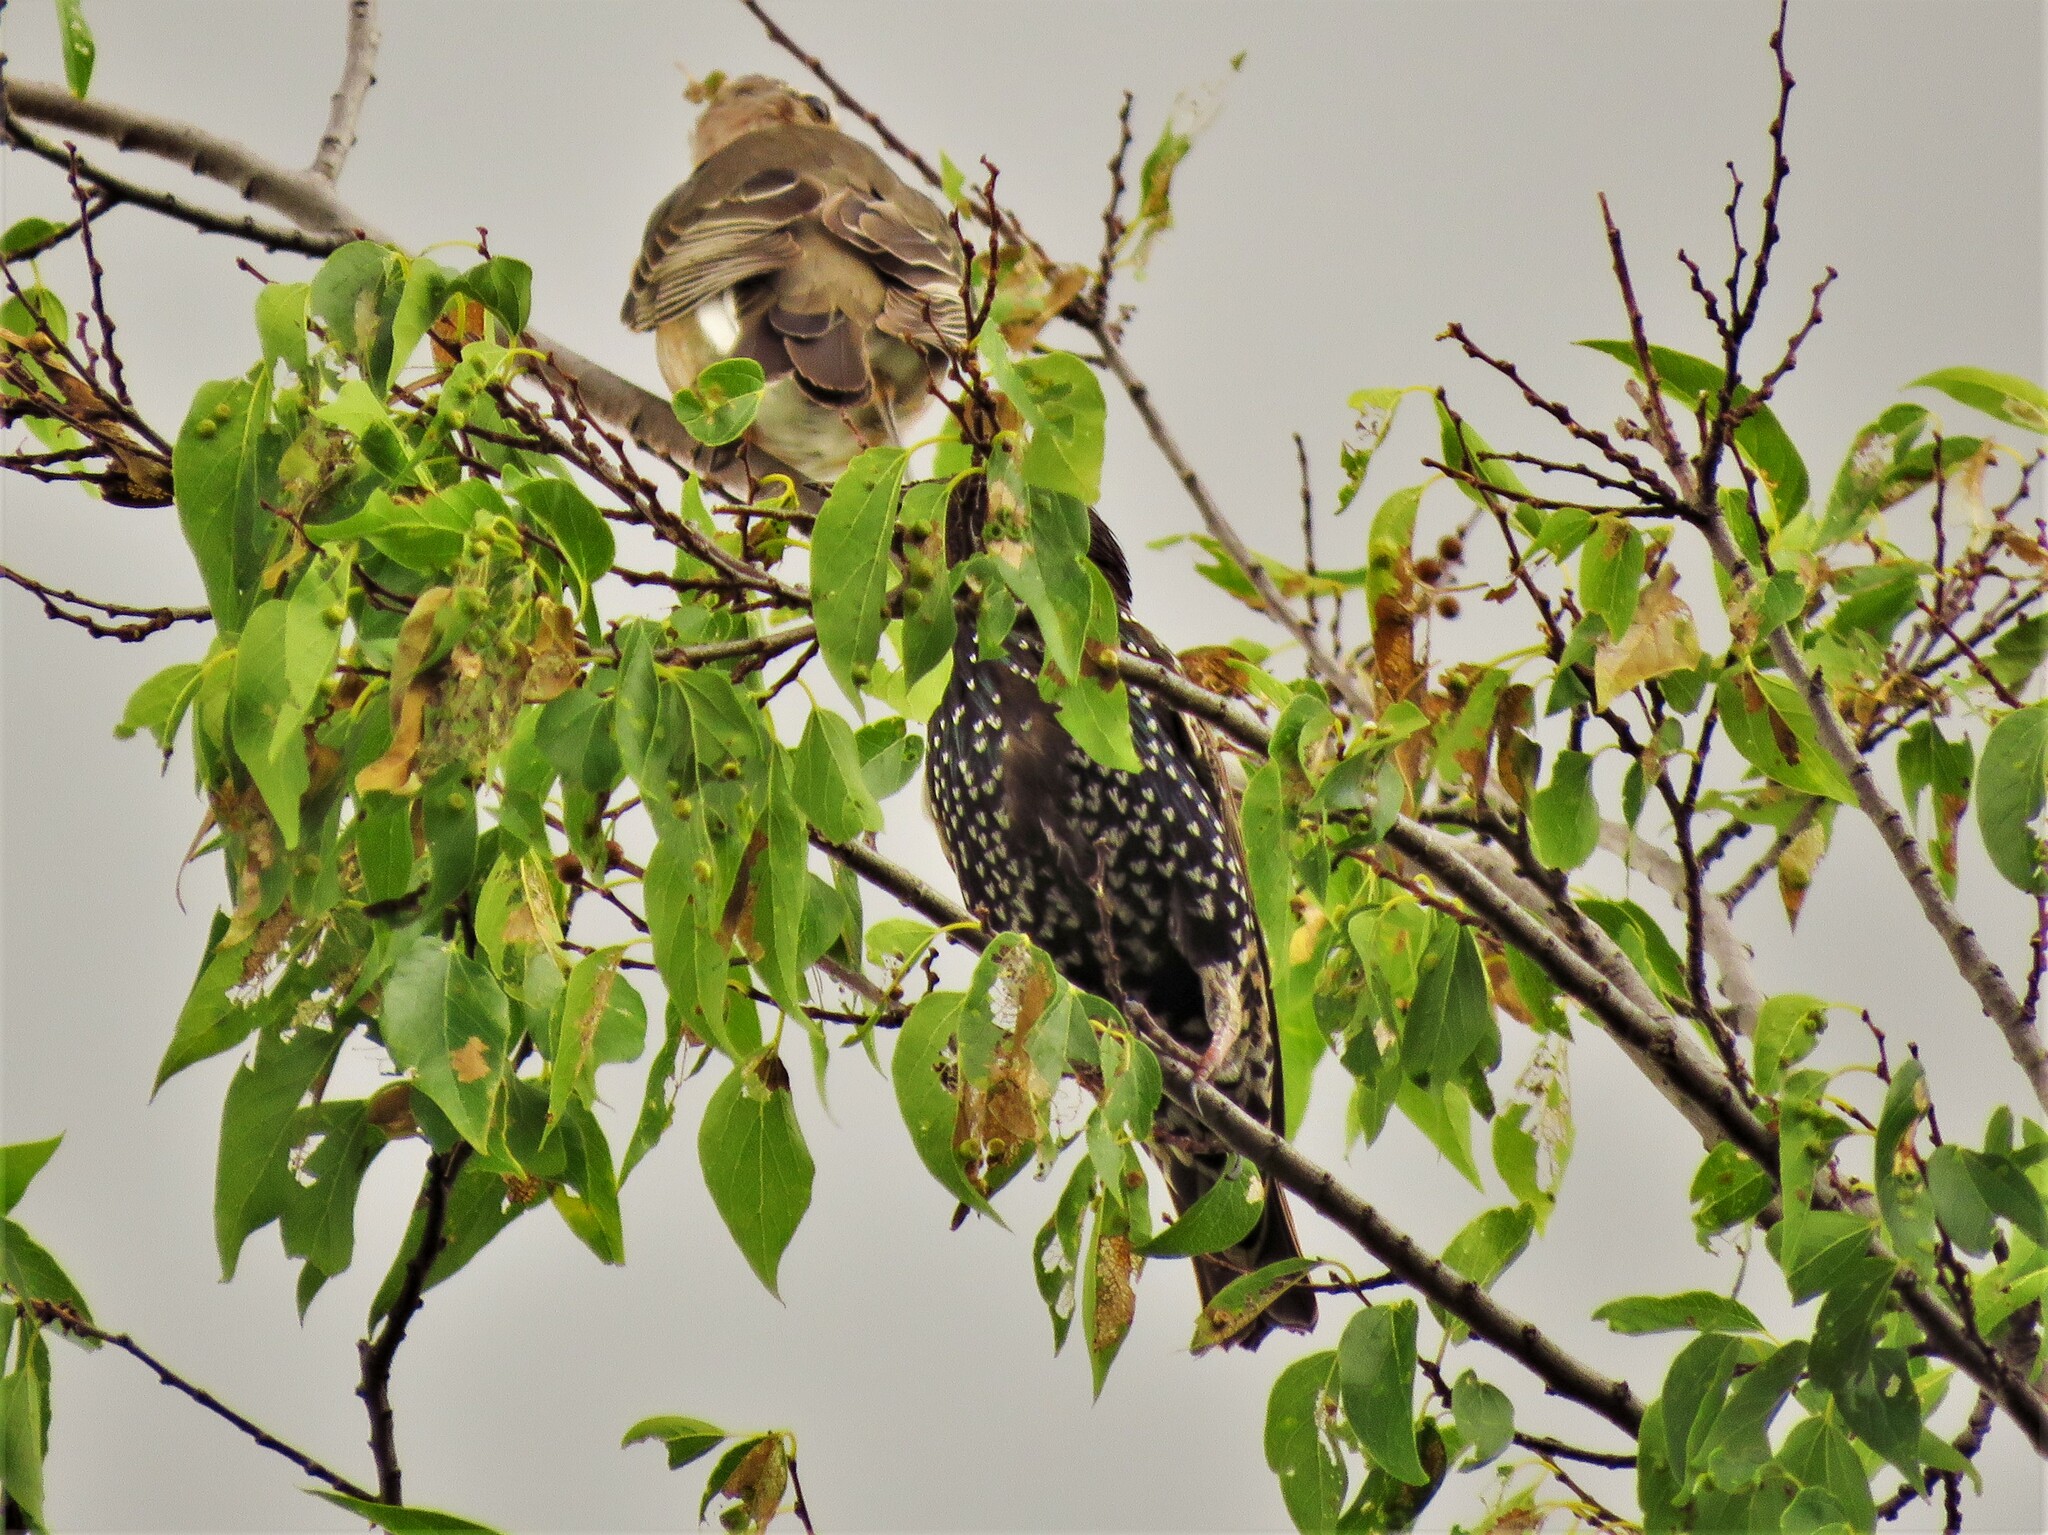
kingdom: Animalia
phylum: Chordata
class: Aves
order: Passeriformes
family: Sturnidae
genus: Sturnus
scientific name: Sturnus vulgaris
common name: Common starling
